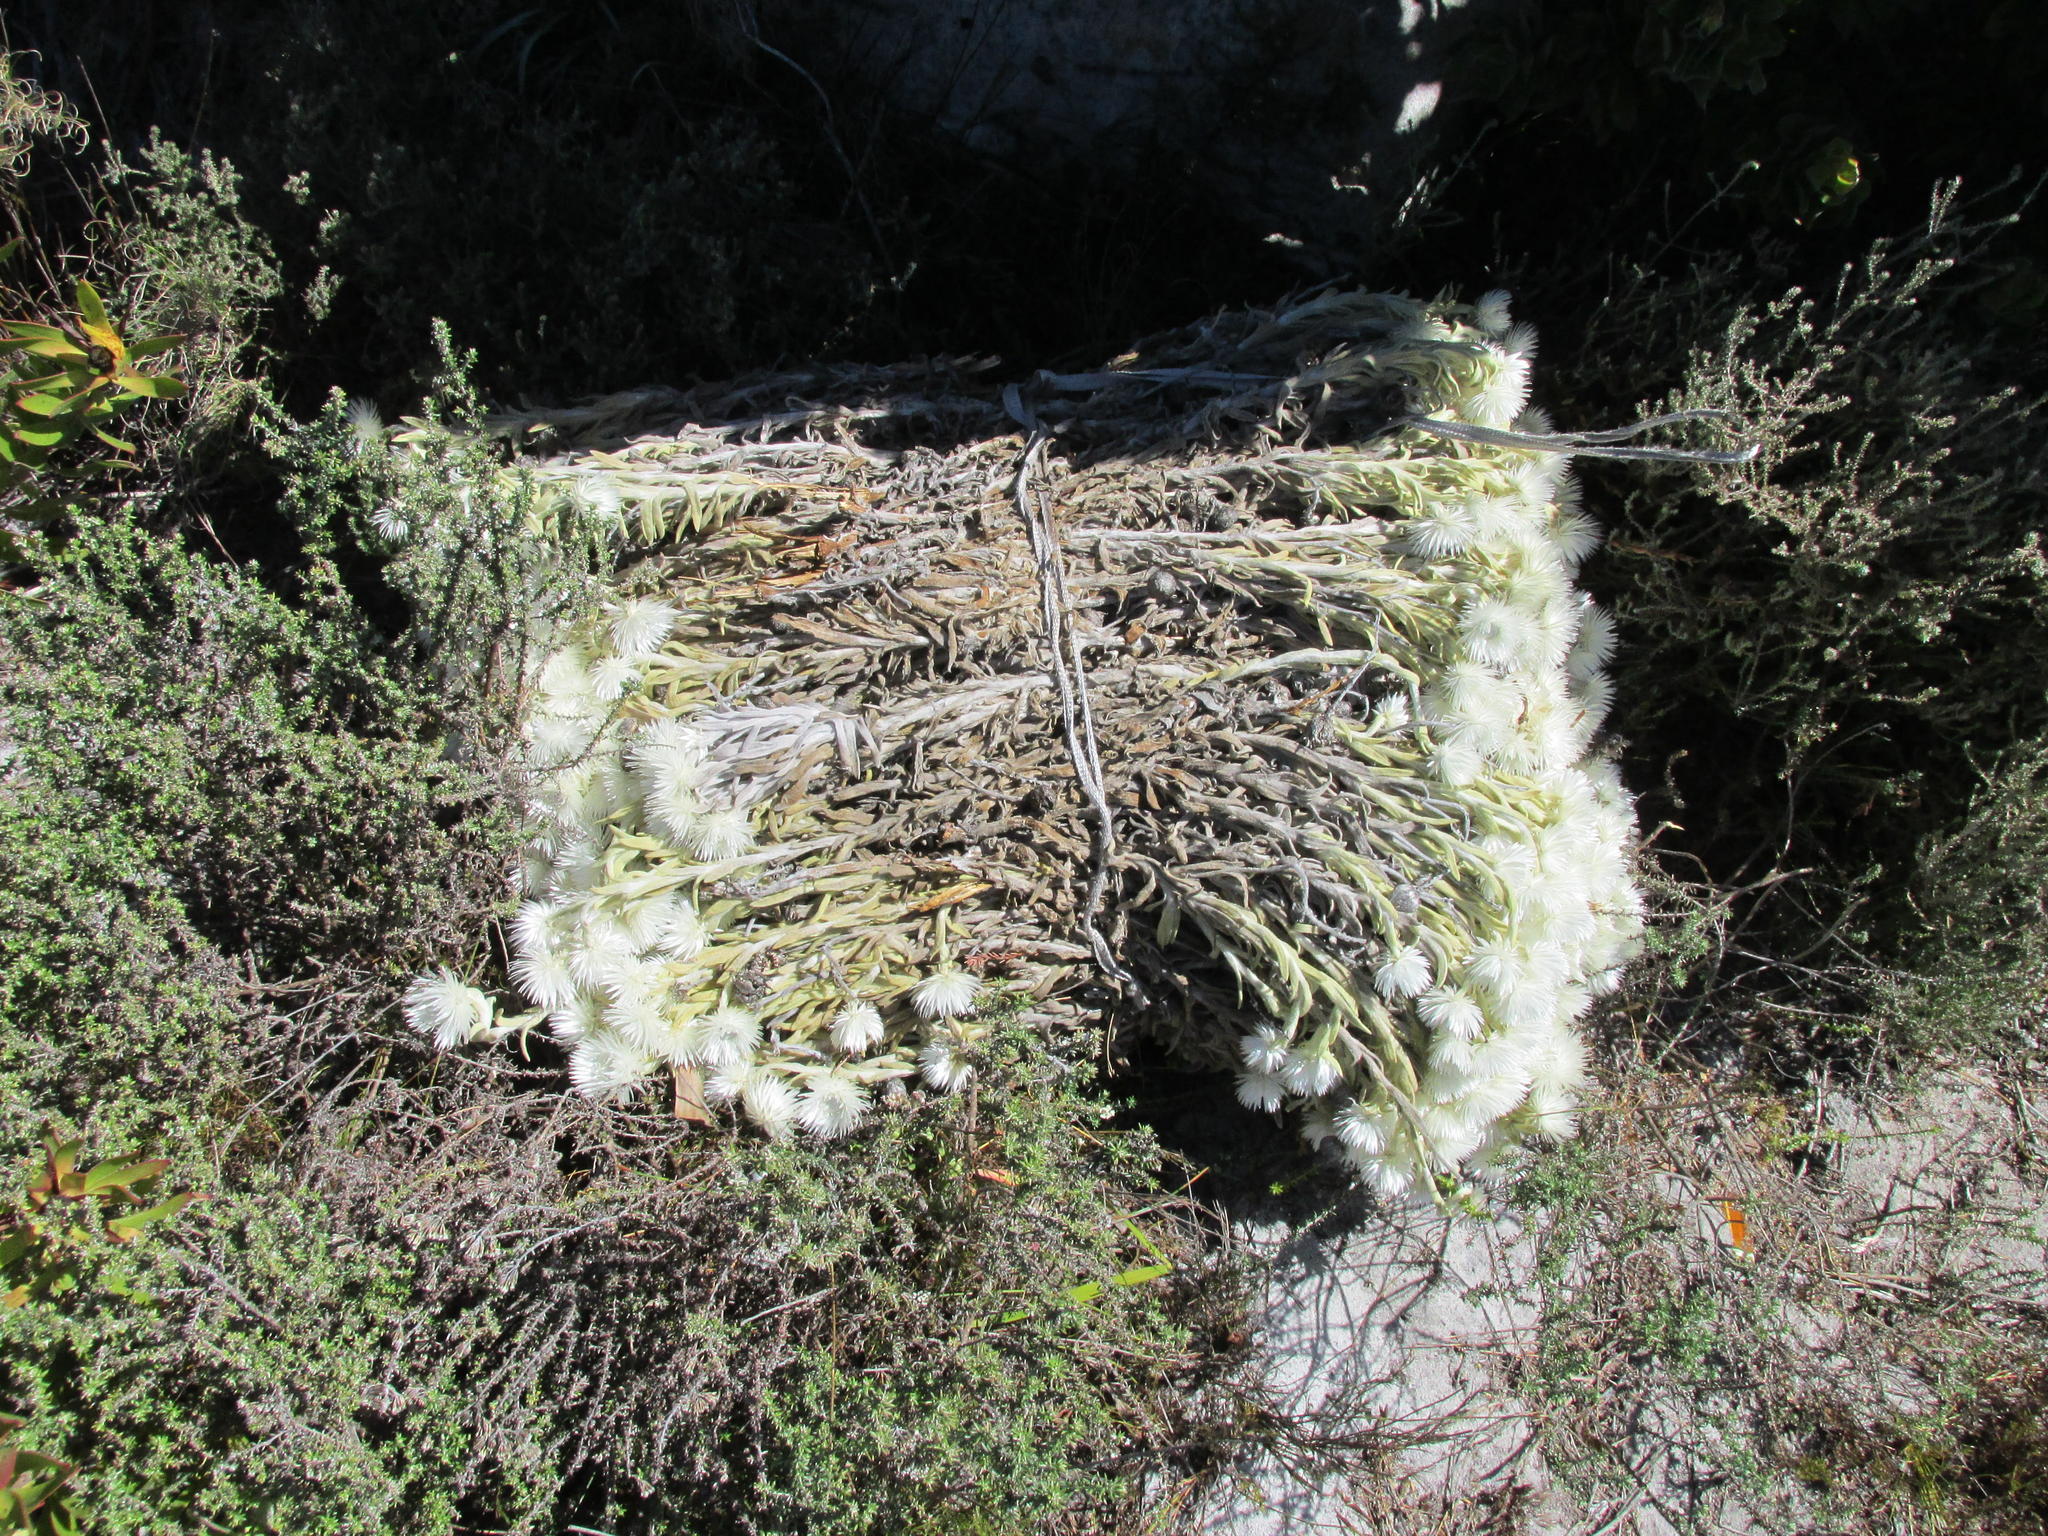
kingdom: Plantae
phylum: Tracheophyta
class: Magnoliopsida
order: Asterales
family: Asteraceae
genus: Syncarpha
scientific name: Syncarpha vestita
